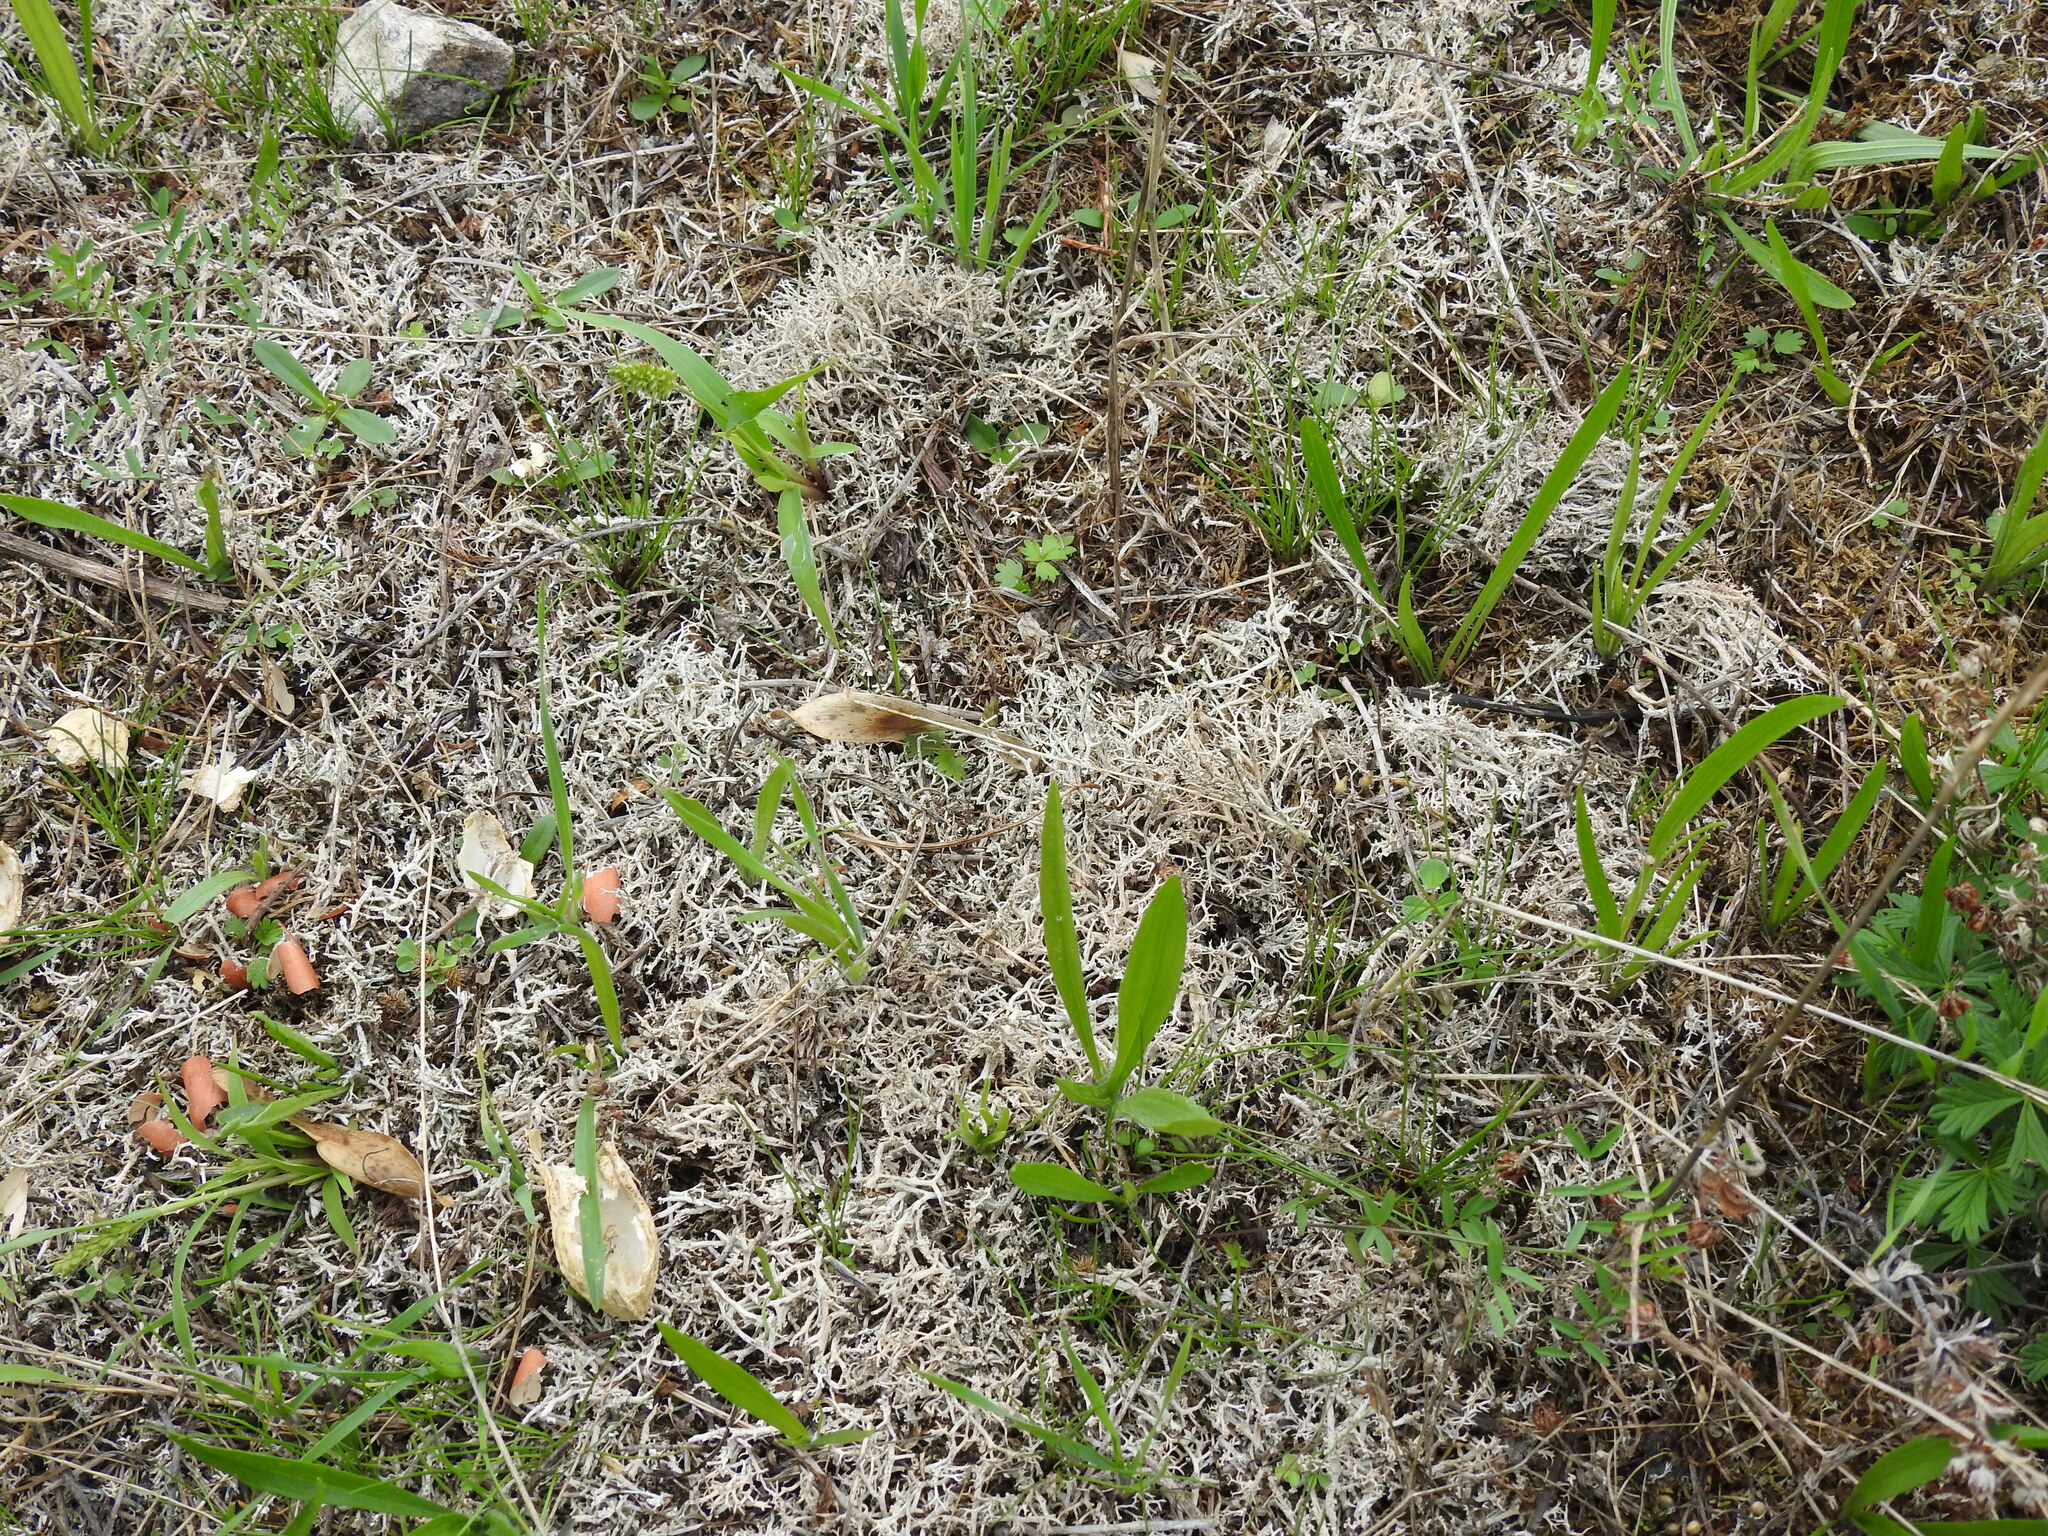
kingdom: Fungi
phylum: Ascomycota
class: Lecanoromycetes
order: Lecanorales
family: Cladoniaceae
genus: Cladonia
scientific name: Cladonia rangiformis
